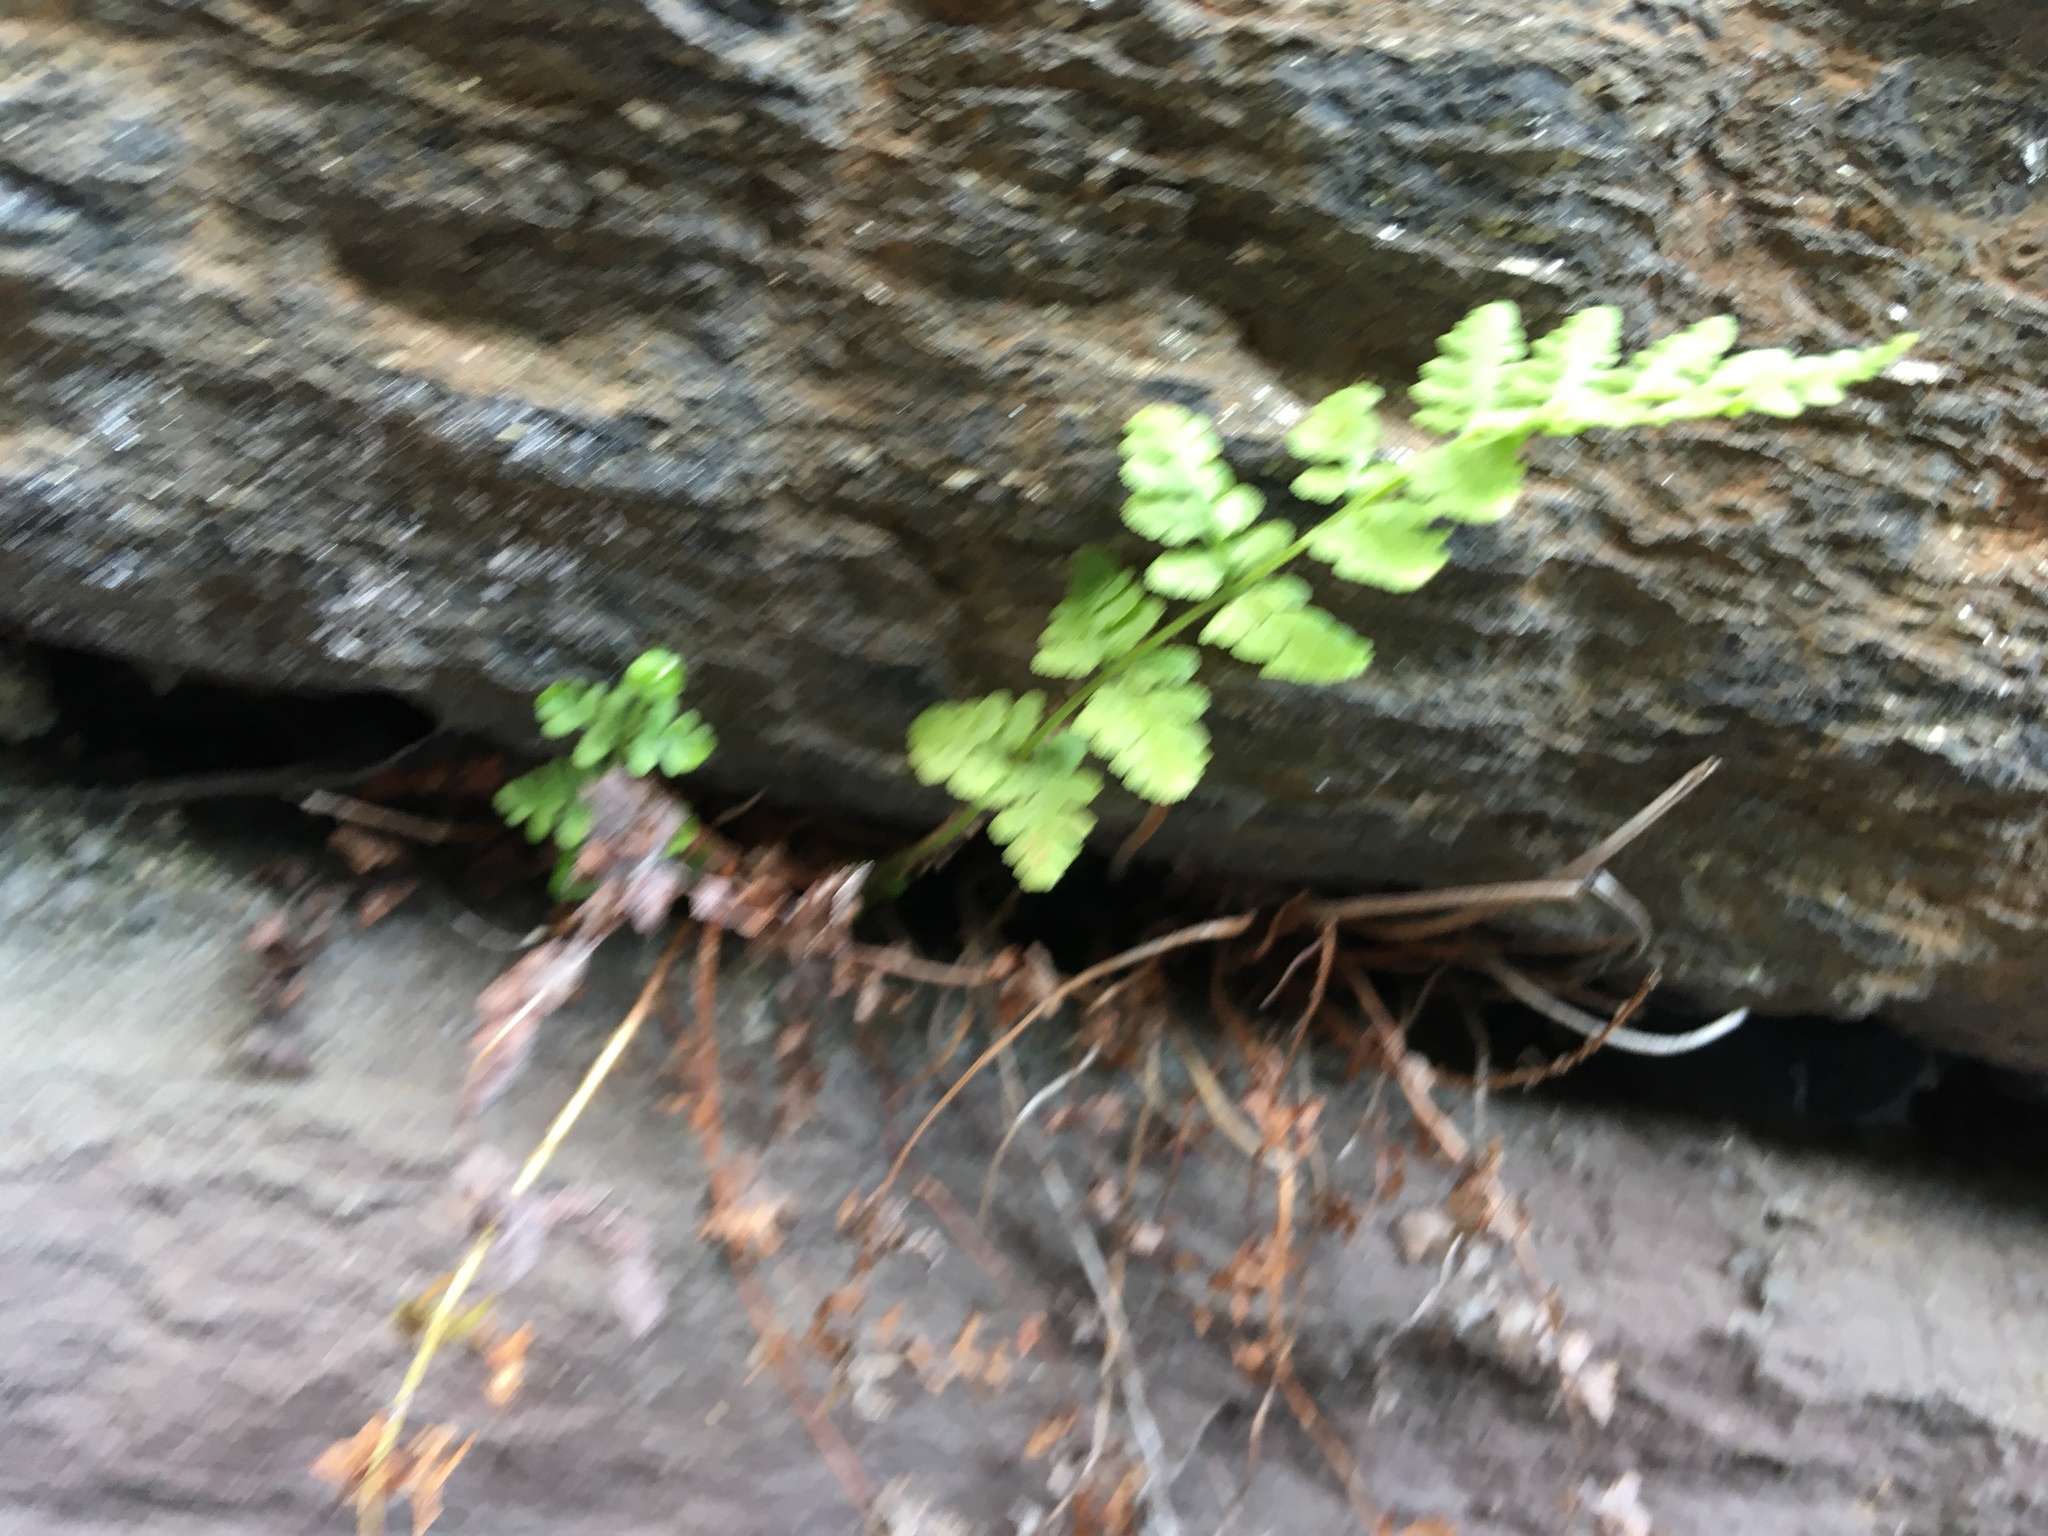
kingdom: Plantae
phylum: Tracheophyta
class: Polypodiopsida
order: Polypodiales
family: Woodsiaceae
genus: Physematium
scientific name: Physematium obtusum
